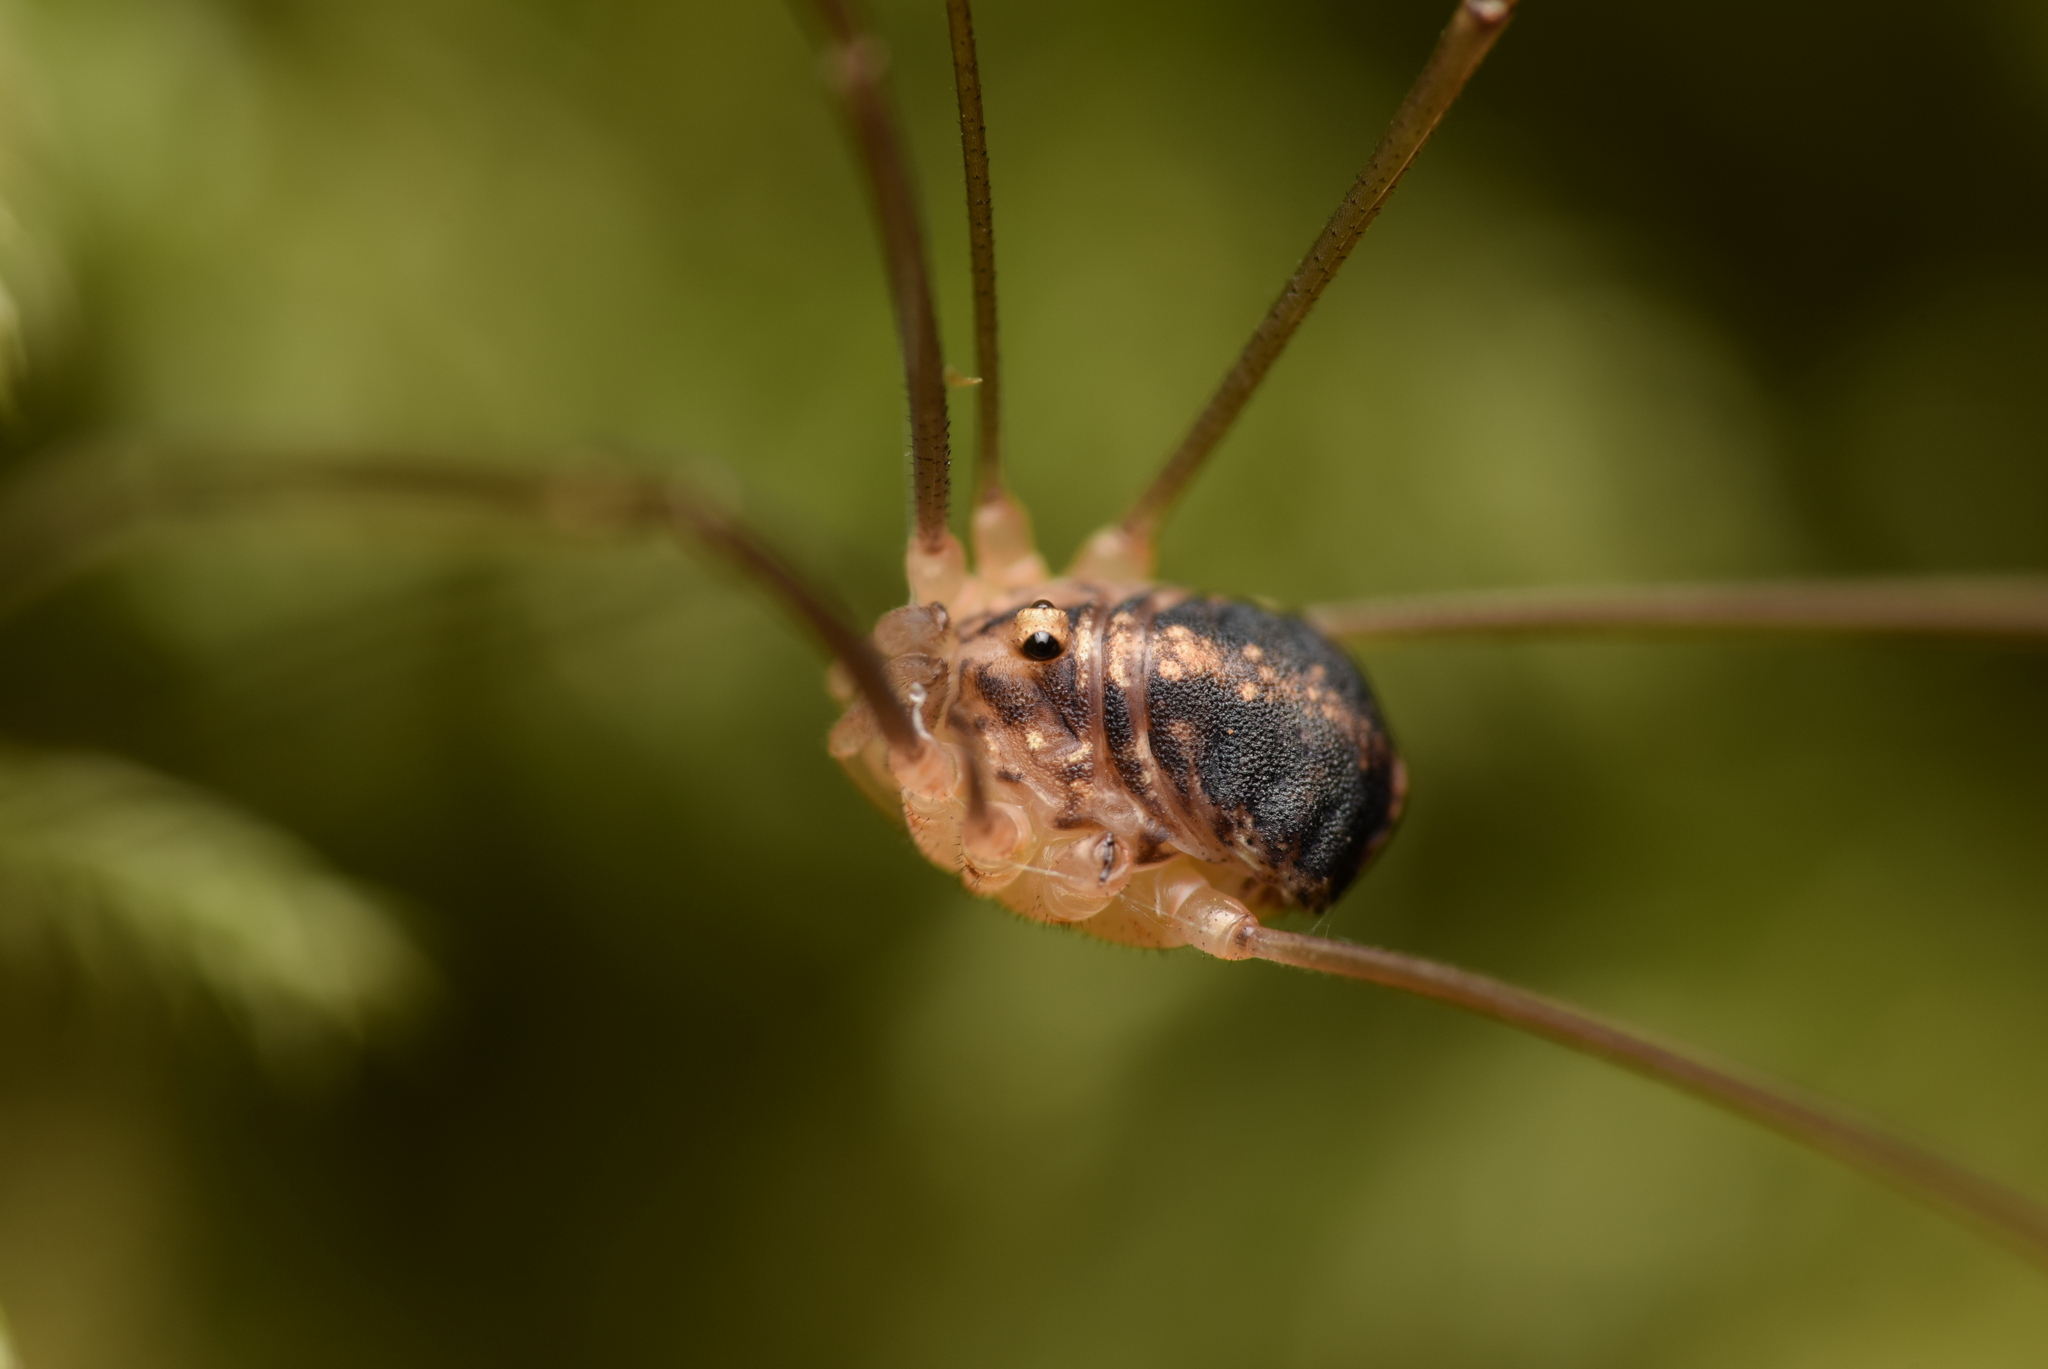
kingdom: Animalia
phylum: Arthropoda
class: Arachnida
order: Opiliones
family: Sclerosomatidae
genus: Nelima
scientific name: Nelima silvatica
